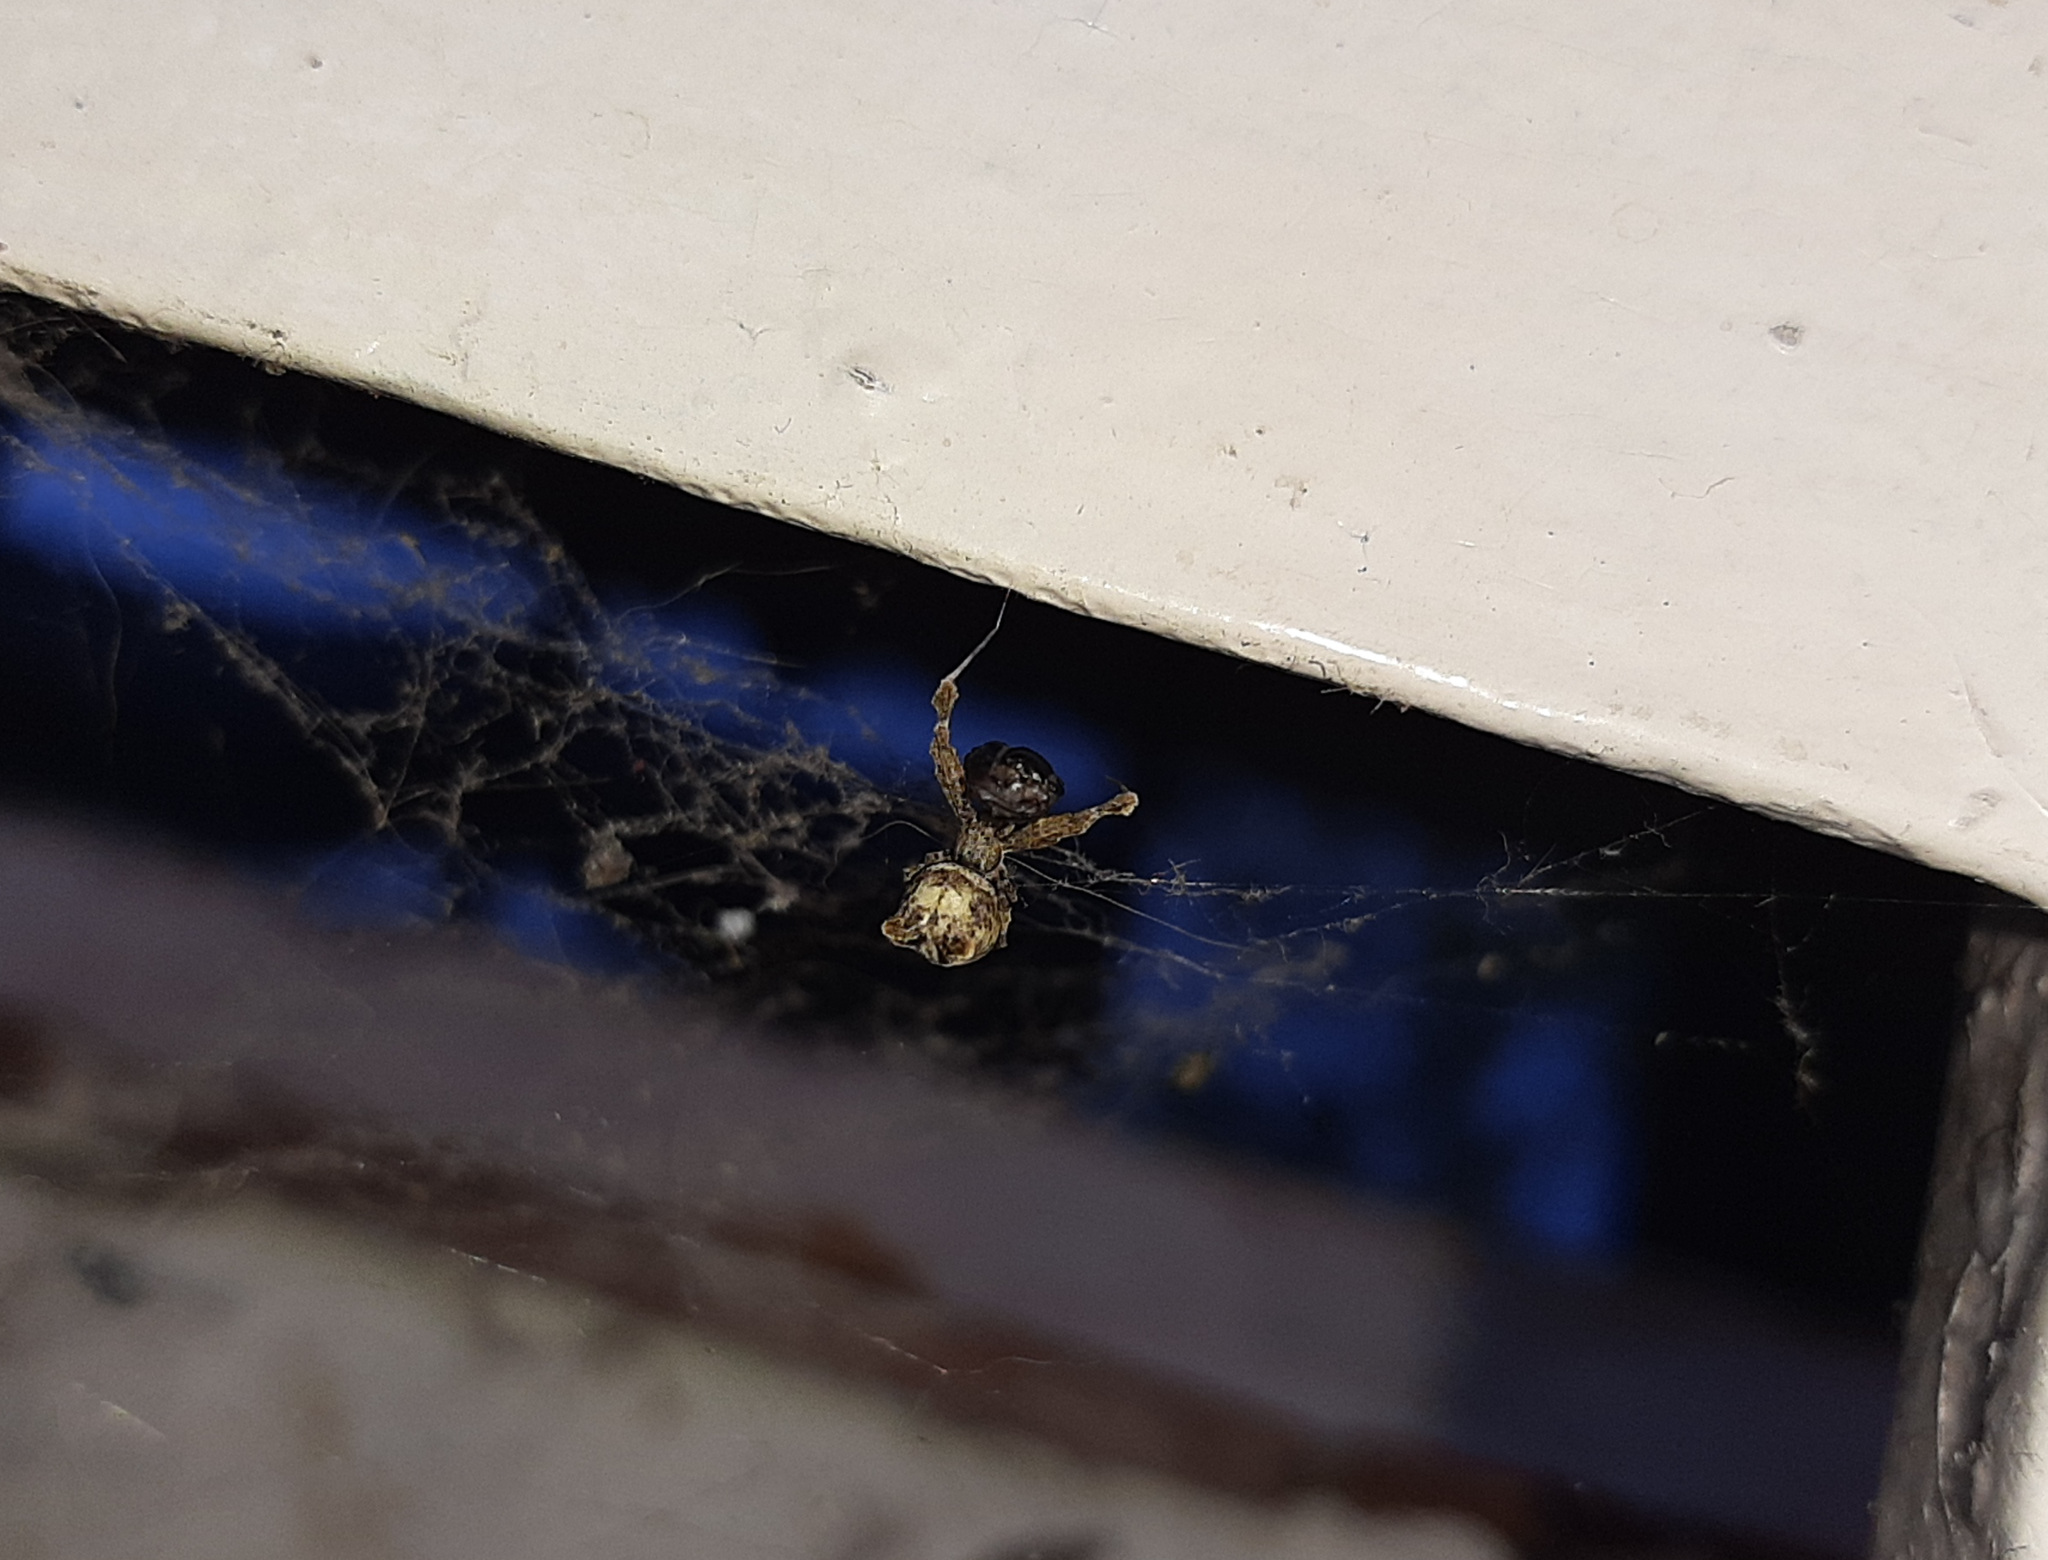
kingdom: Animalia
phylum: Arthropoda
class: Arachnida
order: Araneae
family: Uloboridae
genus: Uloborus
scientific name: Uloborus plumipes
